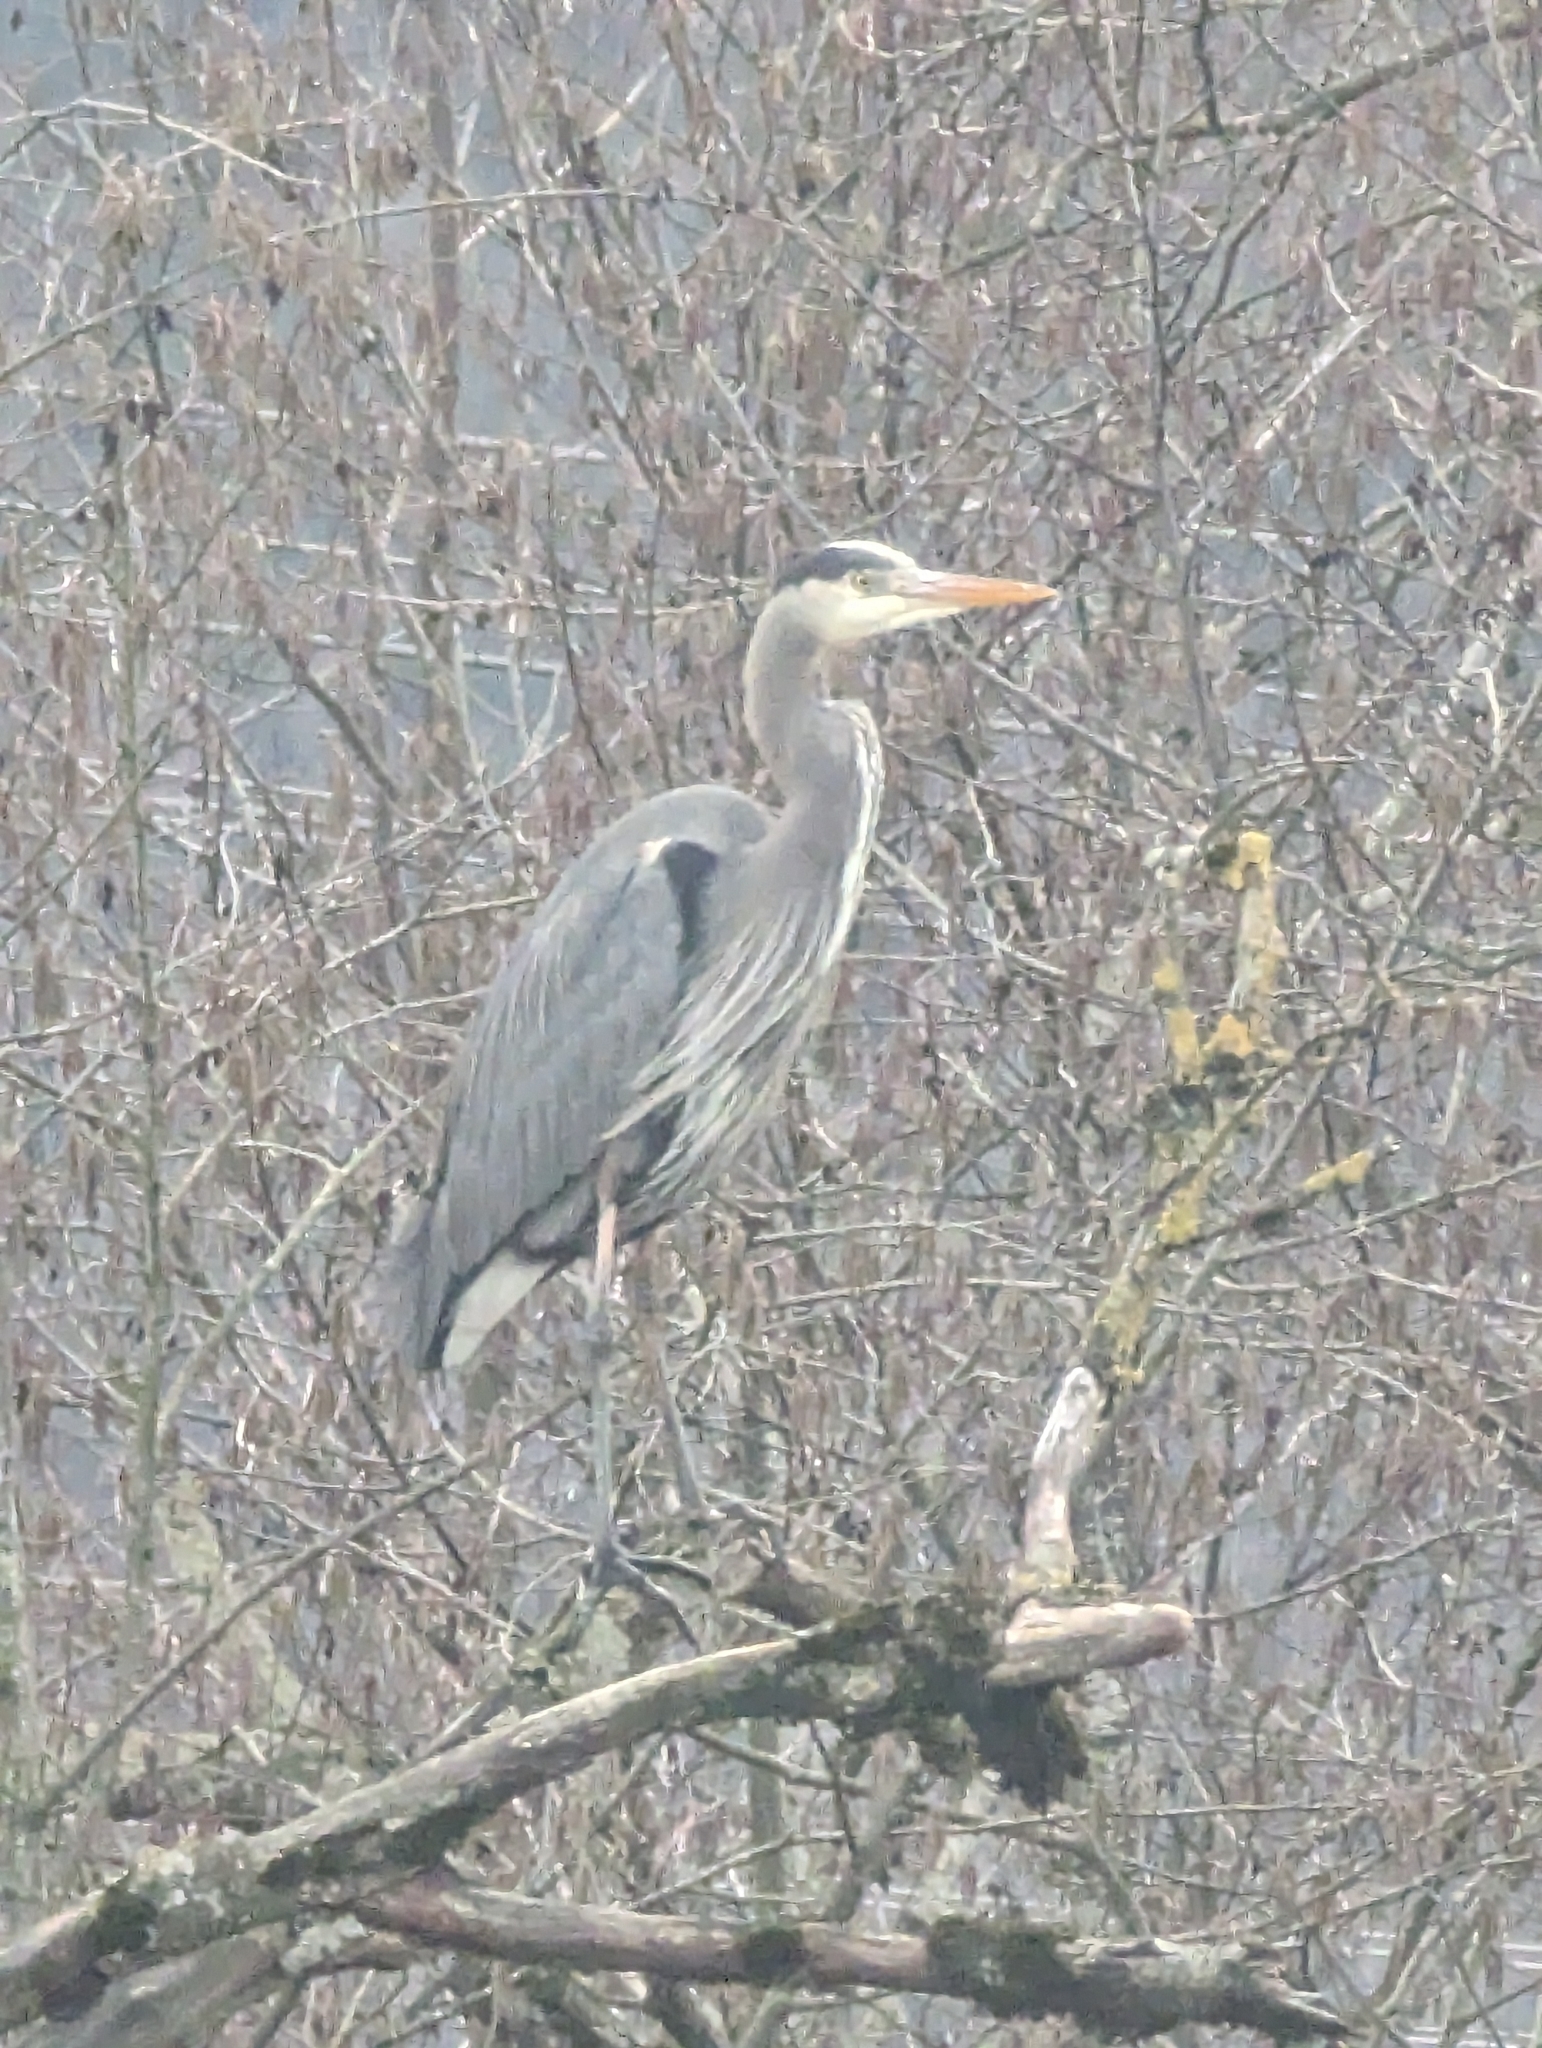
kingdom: Animalia
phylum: Chordata
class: Aves
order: Pelecaniformes
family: Ardeidae
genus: Ardea
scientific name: Ardea herodias
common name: Great blue heron
